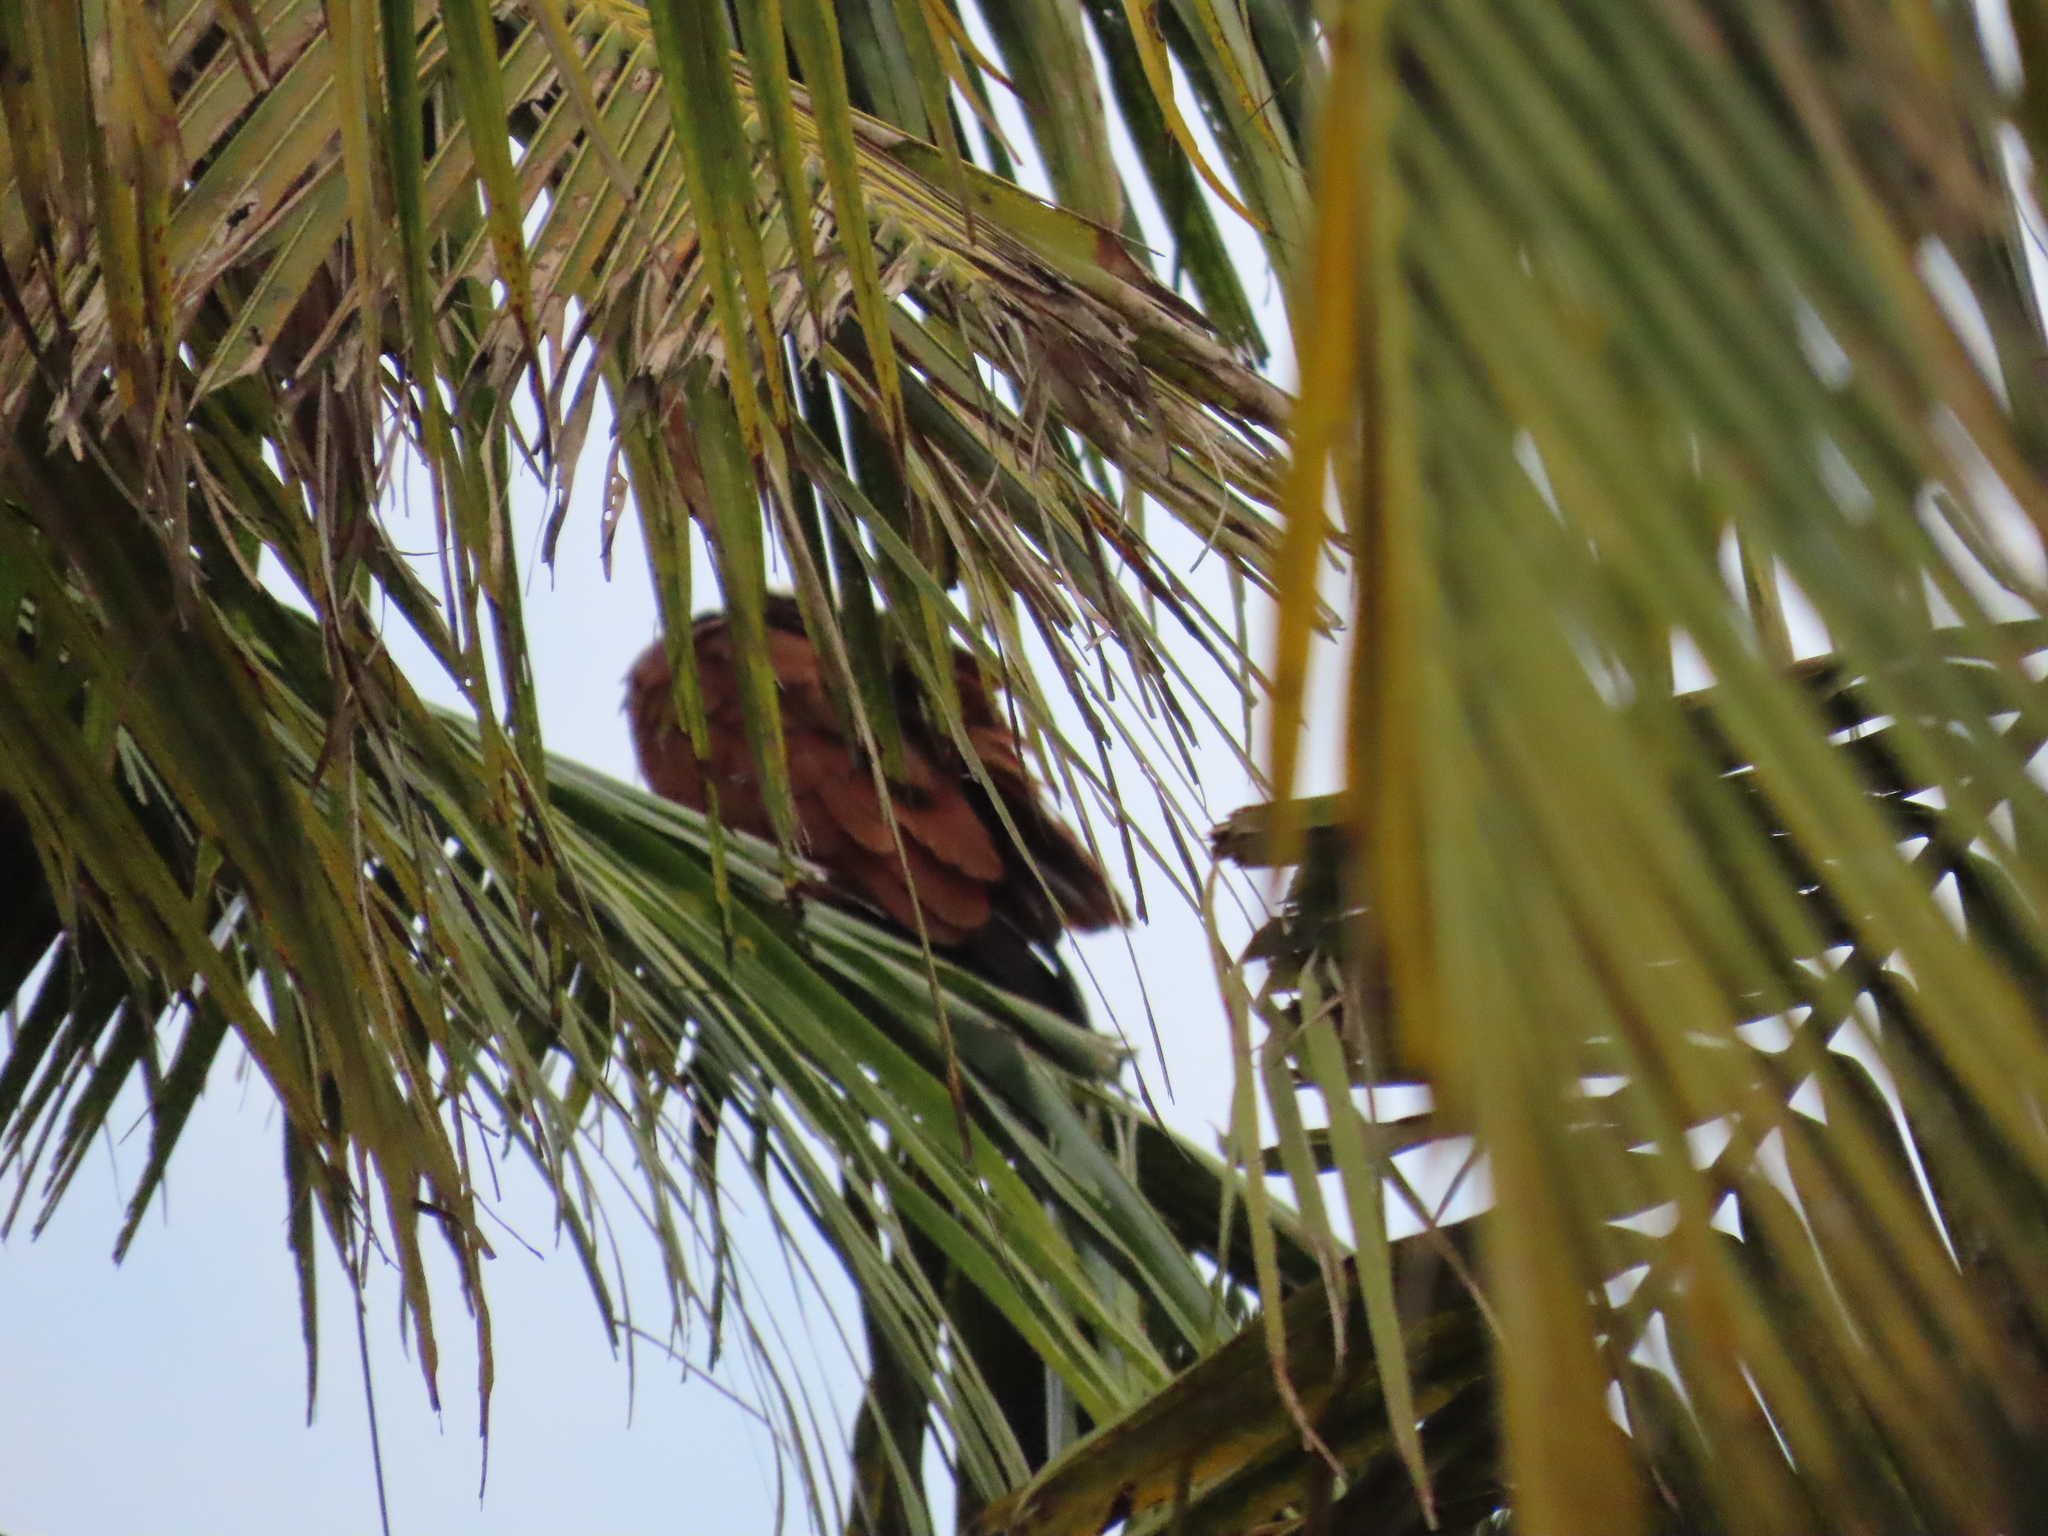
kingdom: Animalia
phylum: Chordata
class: Aves
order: Accipitriformes
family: Accipitridae
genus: Haliastur
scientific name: Haliastur indus
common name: Brahminy kite
